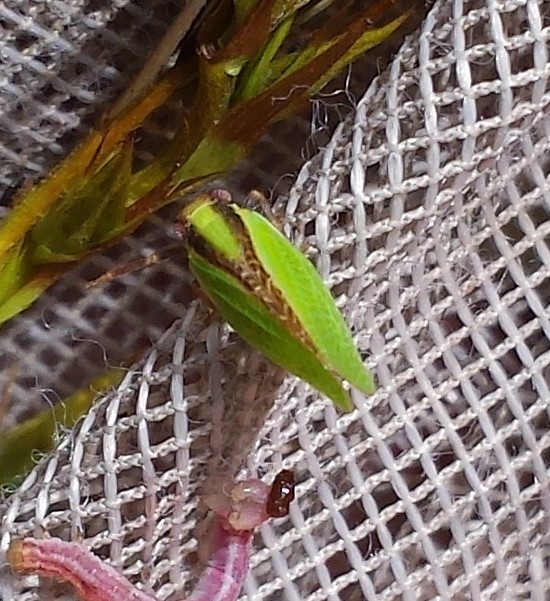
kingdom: Animalia
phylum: Arthropoda
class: Insecta
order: Hemiptera
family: Acanaloniidae
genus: Acanalonia
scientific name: Acanalonia bivittata
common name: Two-striped planthopper
